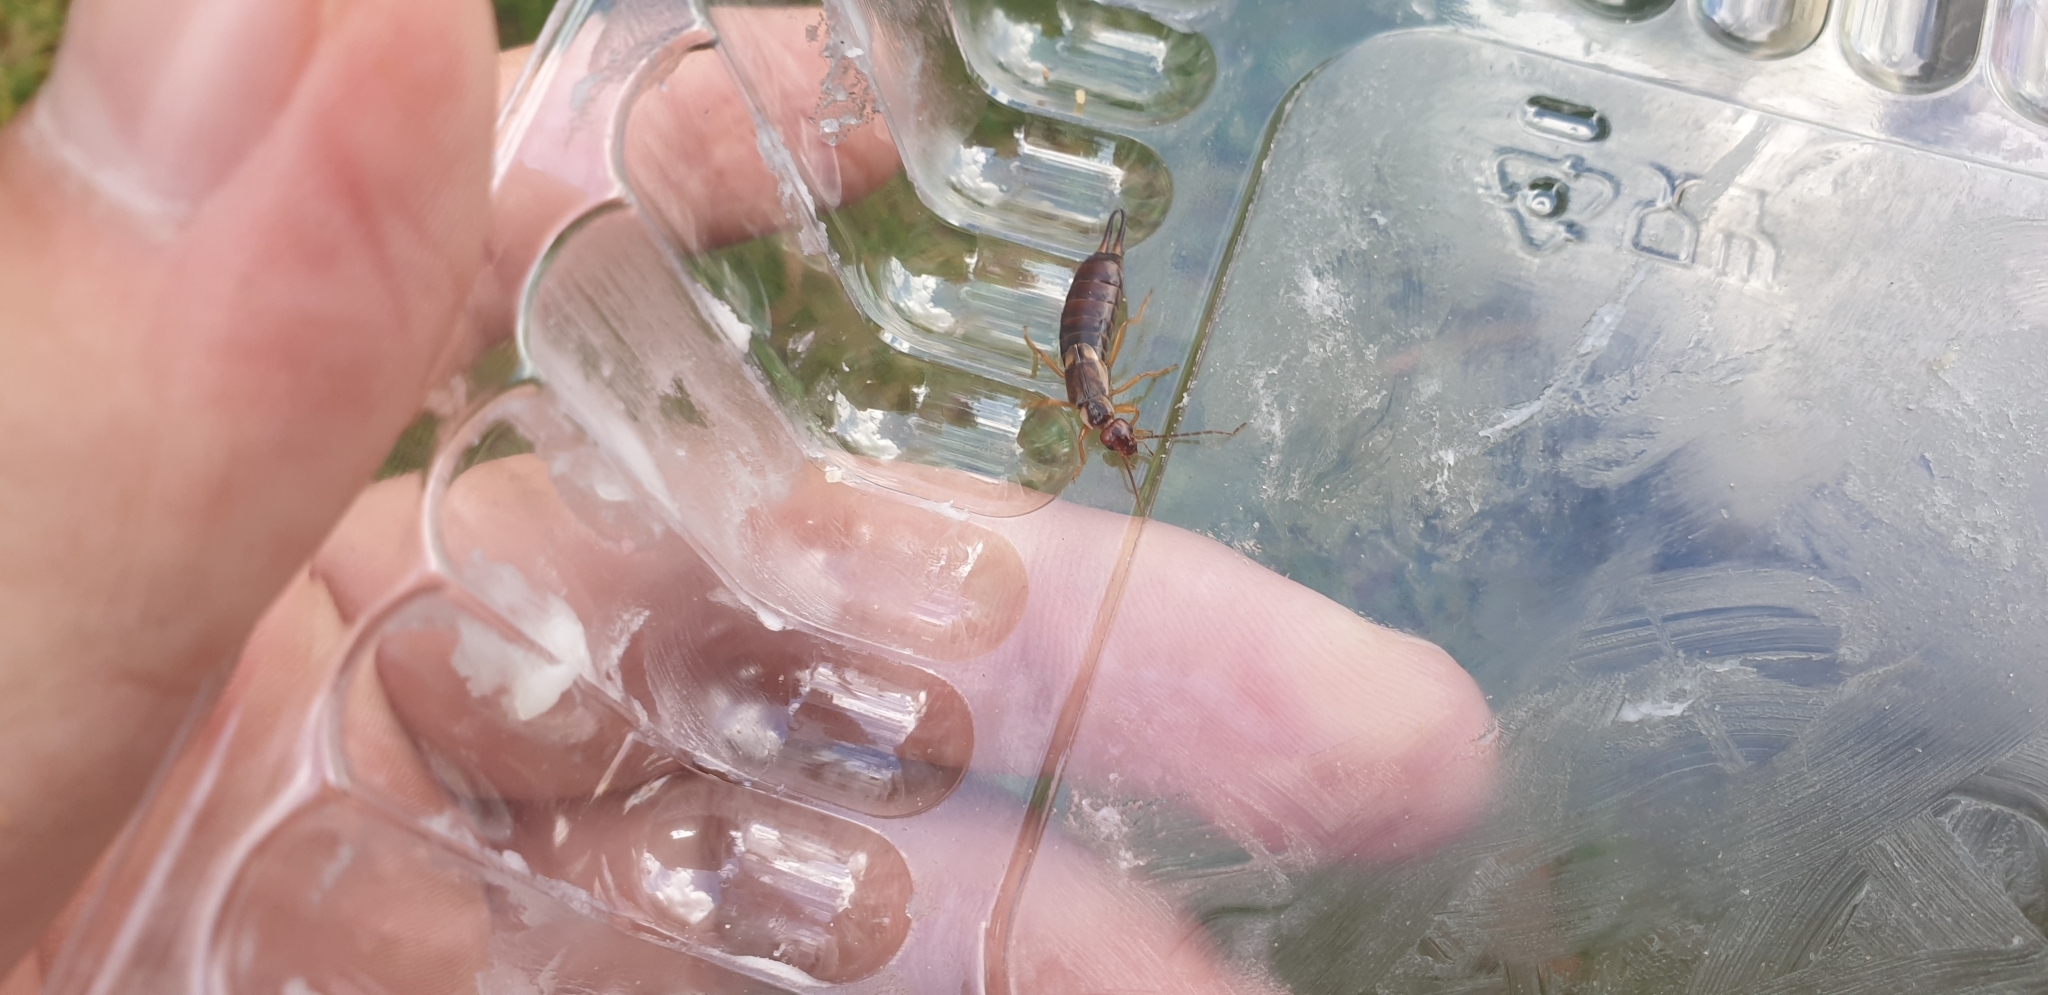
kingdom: Animalia
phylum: Arthropoda
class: Insecta
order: Dermaptera
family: Forficulidae
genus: Forficula
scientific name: Forficula
